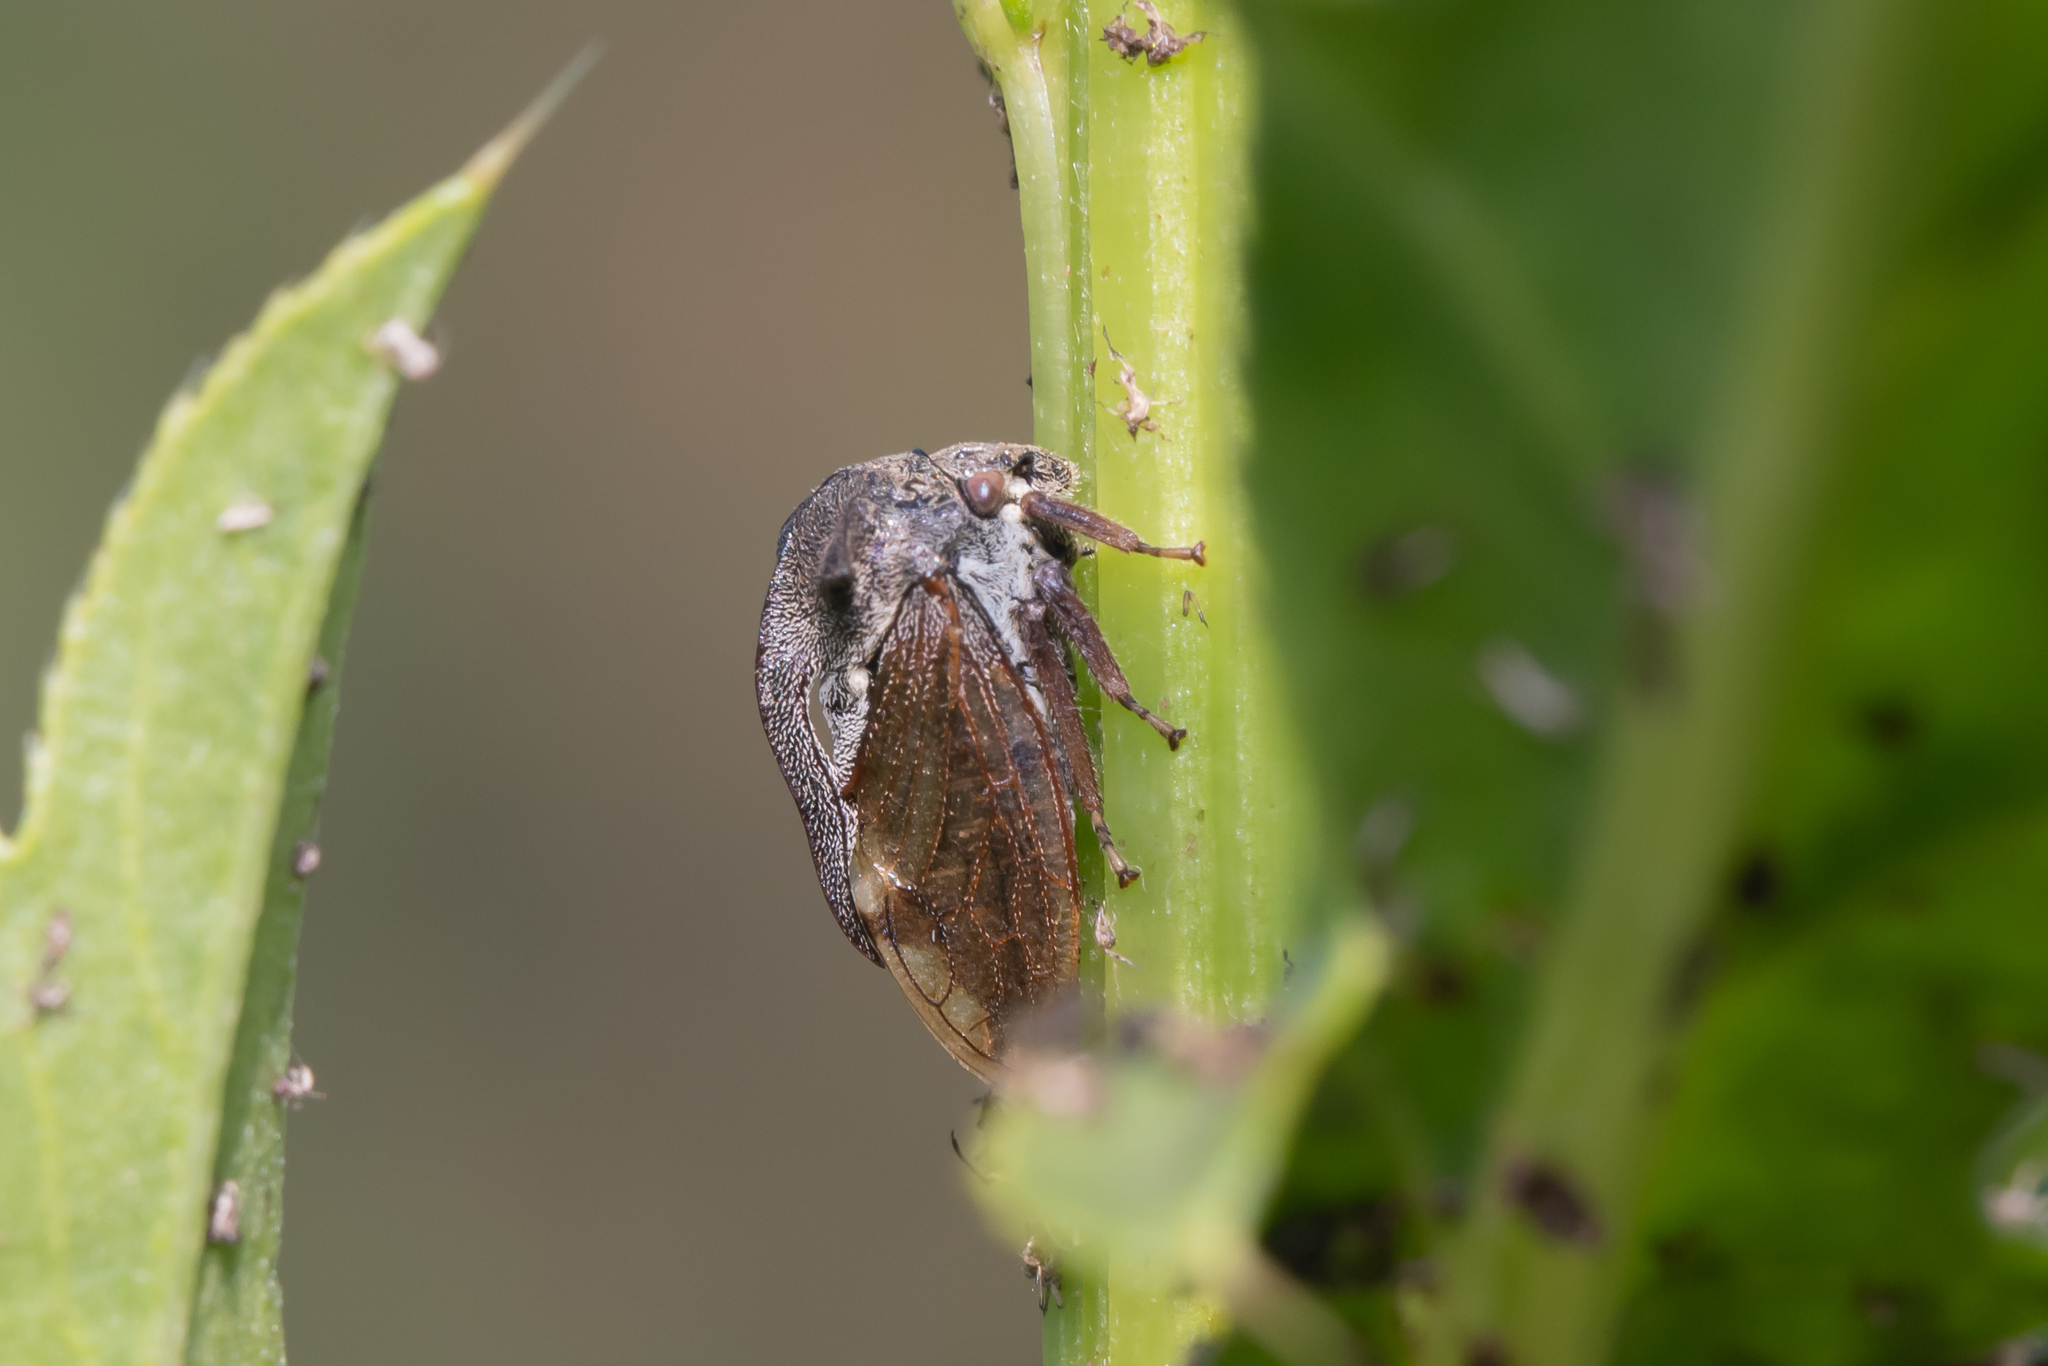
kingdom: Animalia
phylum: Arthropoda
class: Insecta
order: Hemiptera
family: Membracidae
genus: Centrotus
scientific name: Centrotus cornuta
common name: Treehopper
